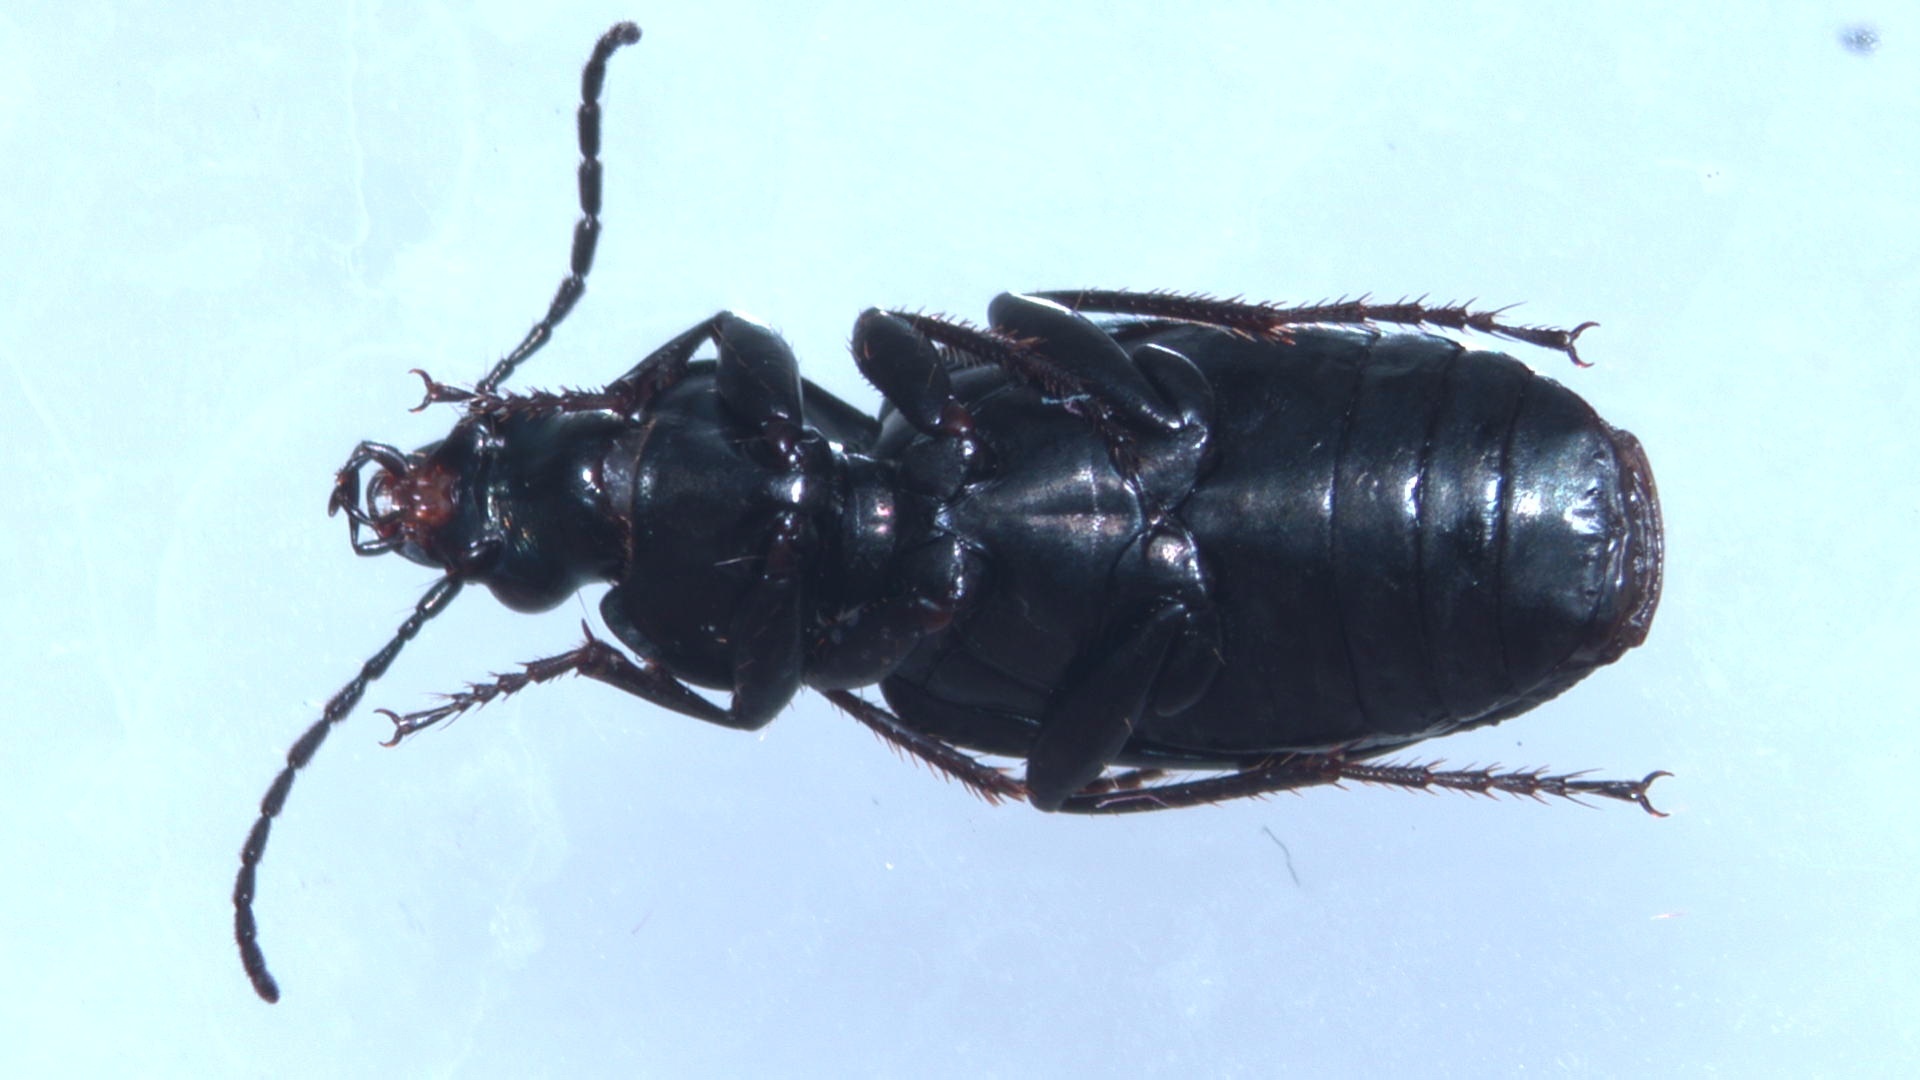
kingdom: Animalia
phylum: Arthropoda
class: Insecta
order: Coleoptera
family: Carabidae
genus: Agonum
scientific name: Agonum viridicupreum
